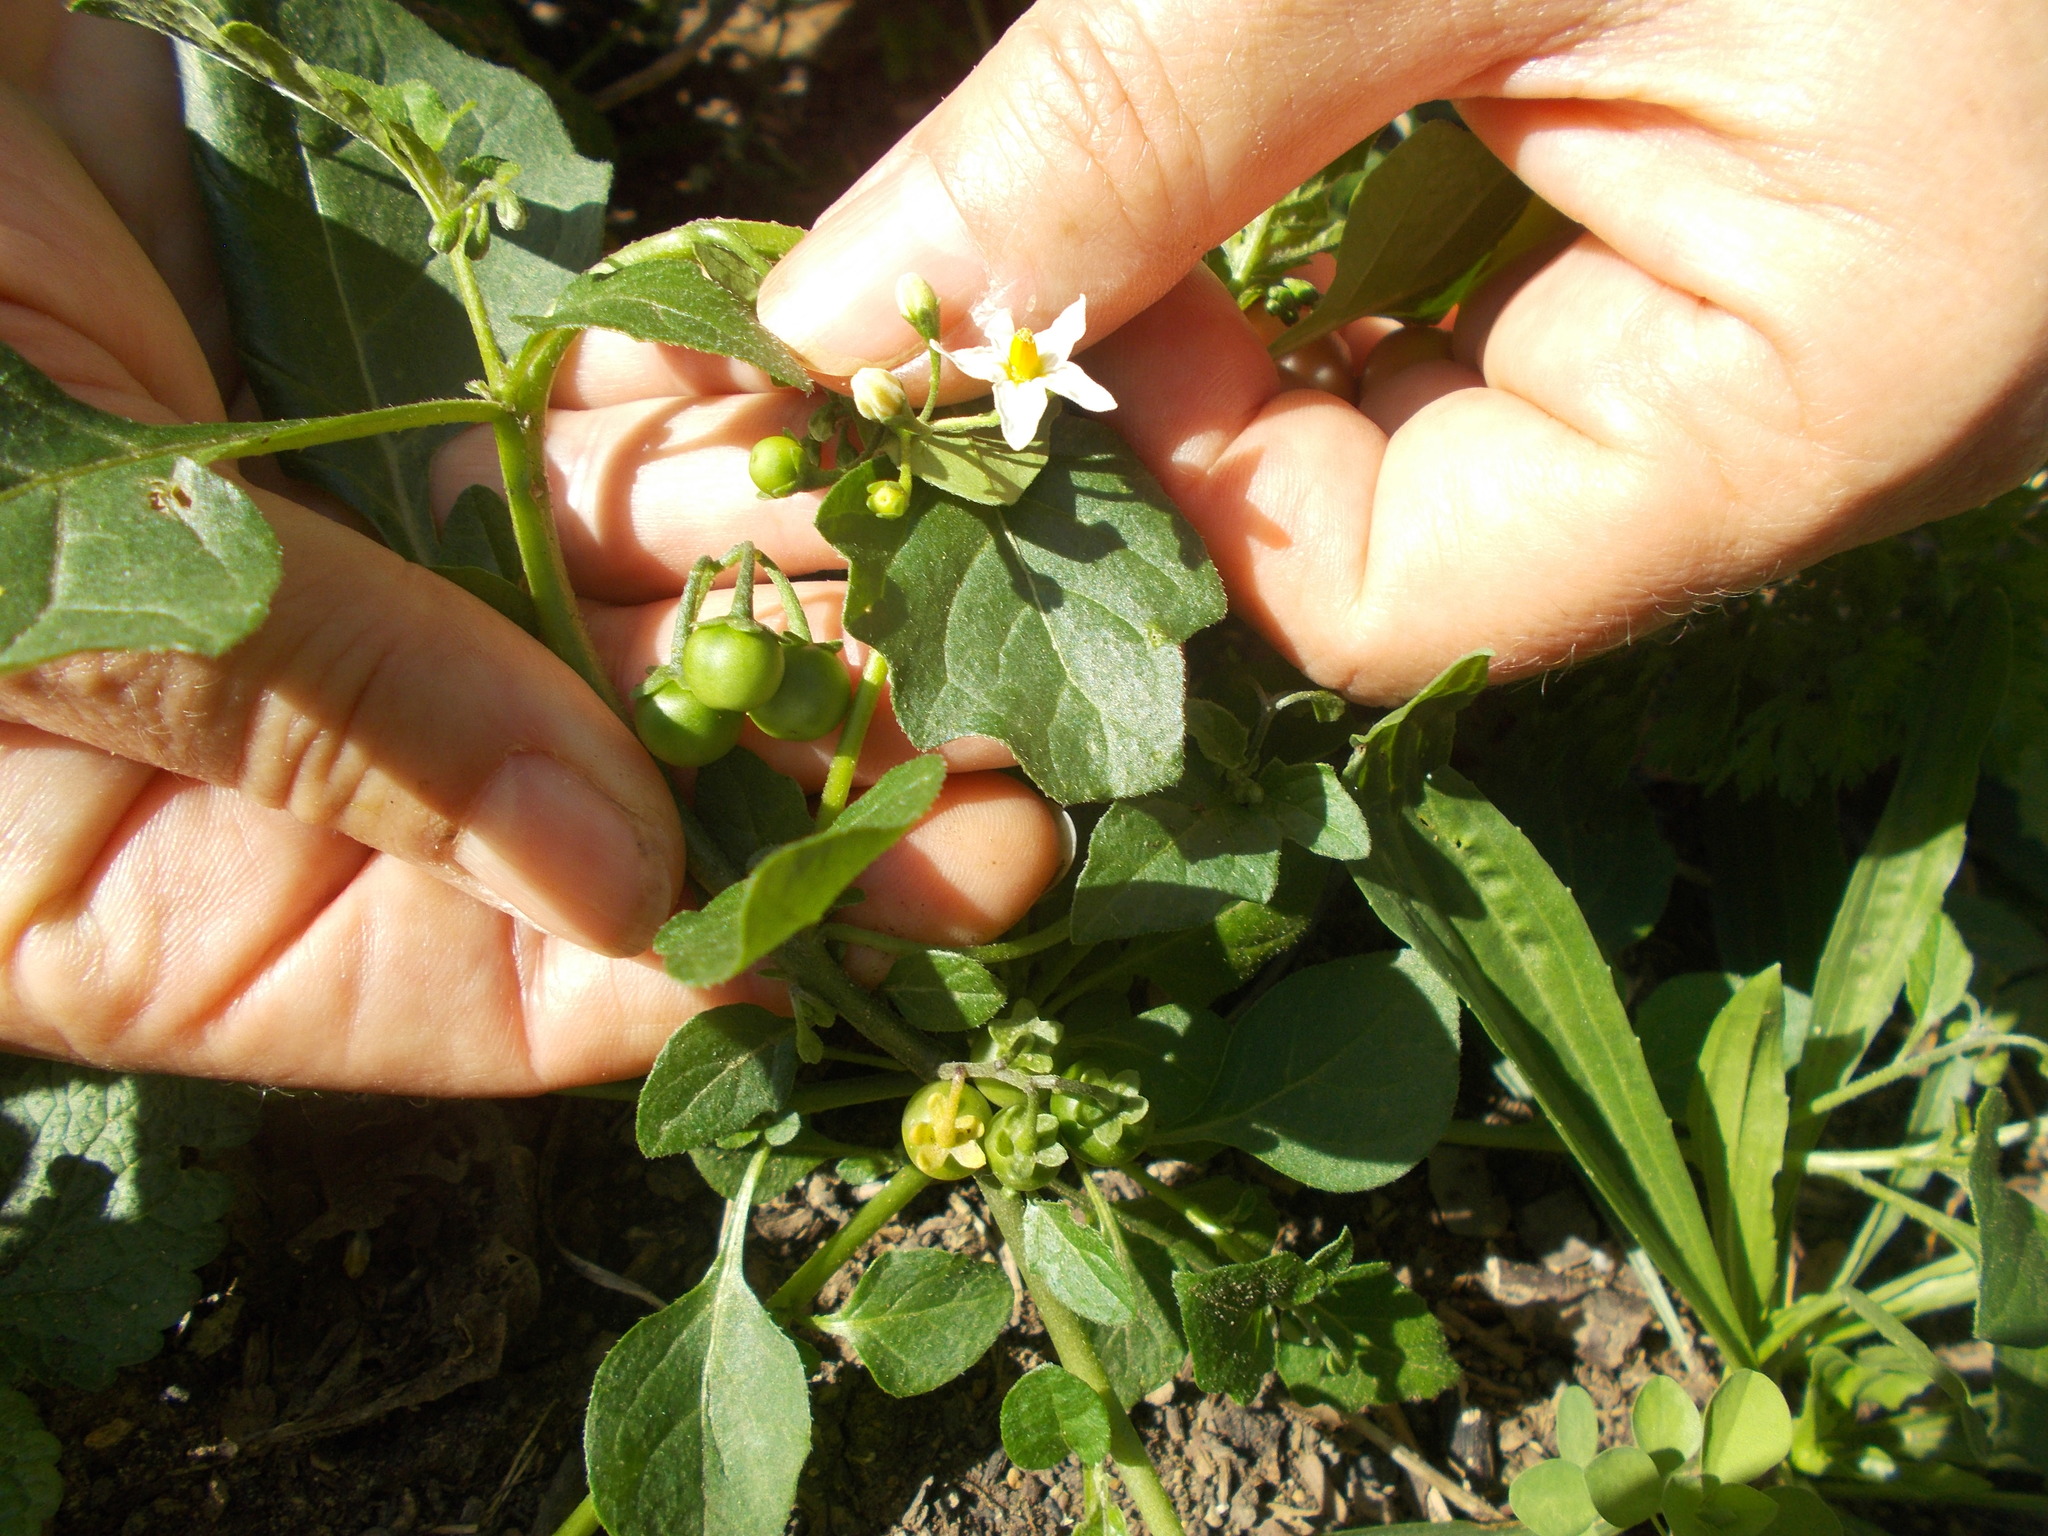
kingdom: Plantae
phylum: Tracheophyta
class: Magnoliopsida
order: Solanales
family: Solanaceae
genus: Solanum
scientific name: Solanum nigrum
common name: Black nightshade
